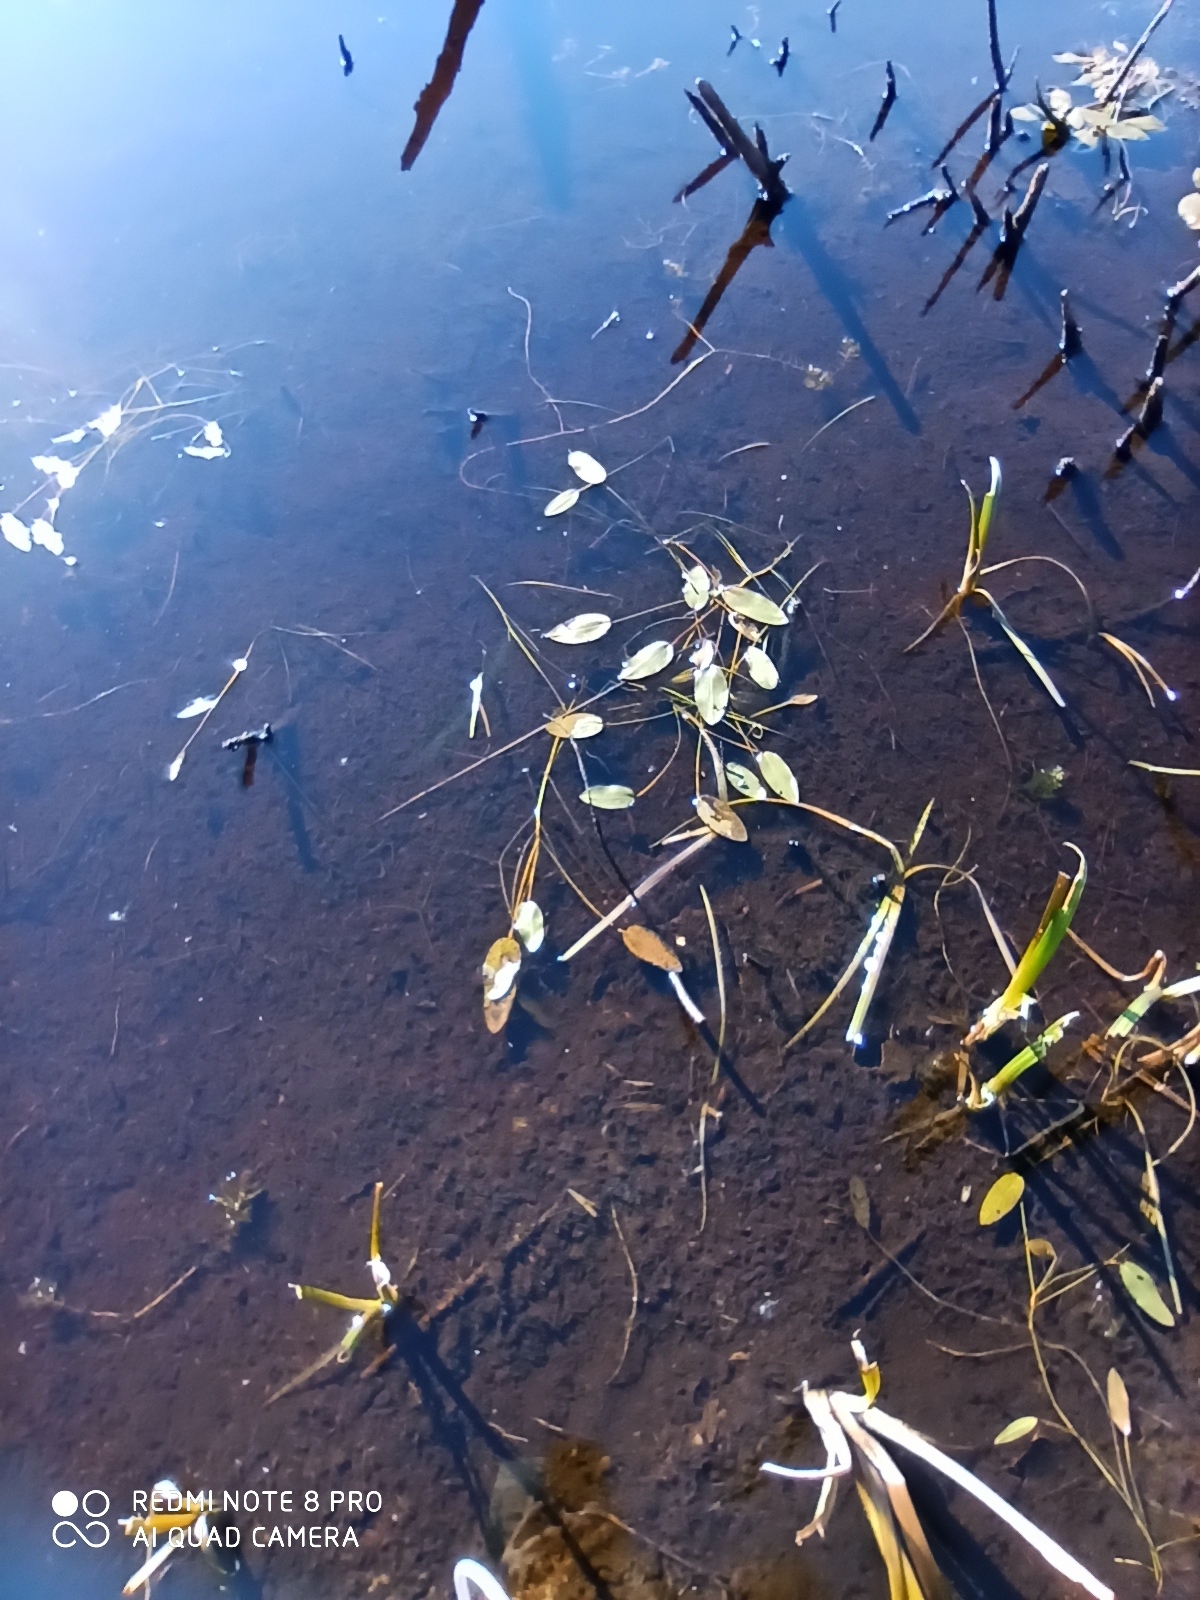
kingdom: Plantae
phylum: Tracheophyta
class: Liliopsida
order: Alismatales
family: Potamogetonaceae
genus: Potamogeton
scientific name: Potamogeton natans
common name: Broad-leaved pondweed
